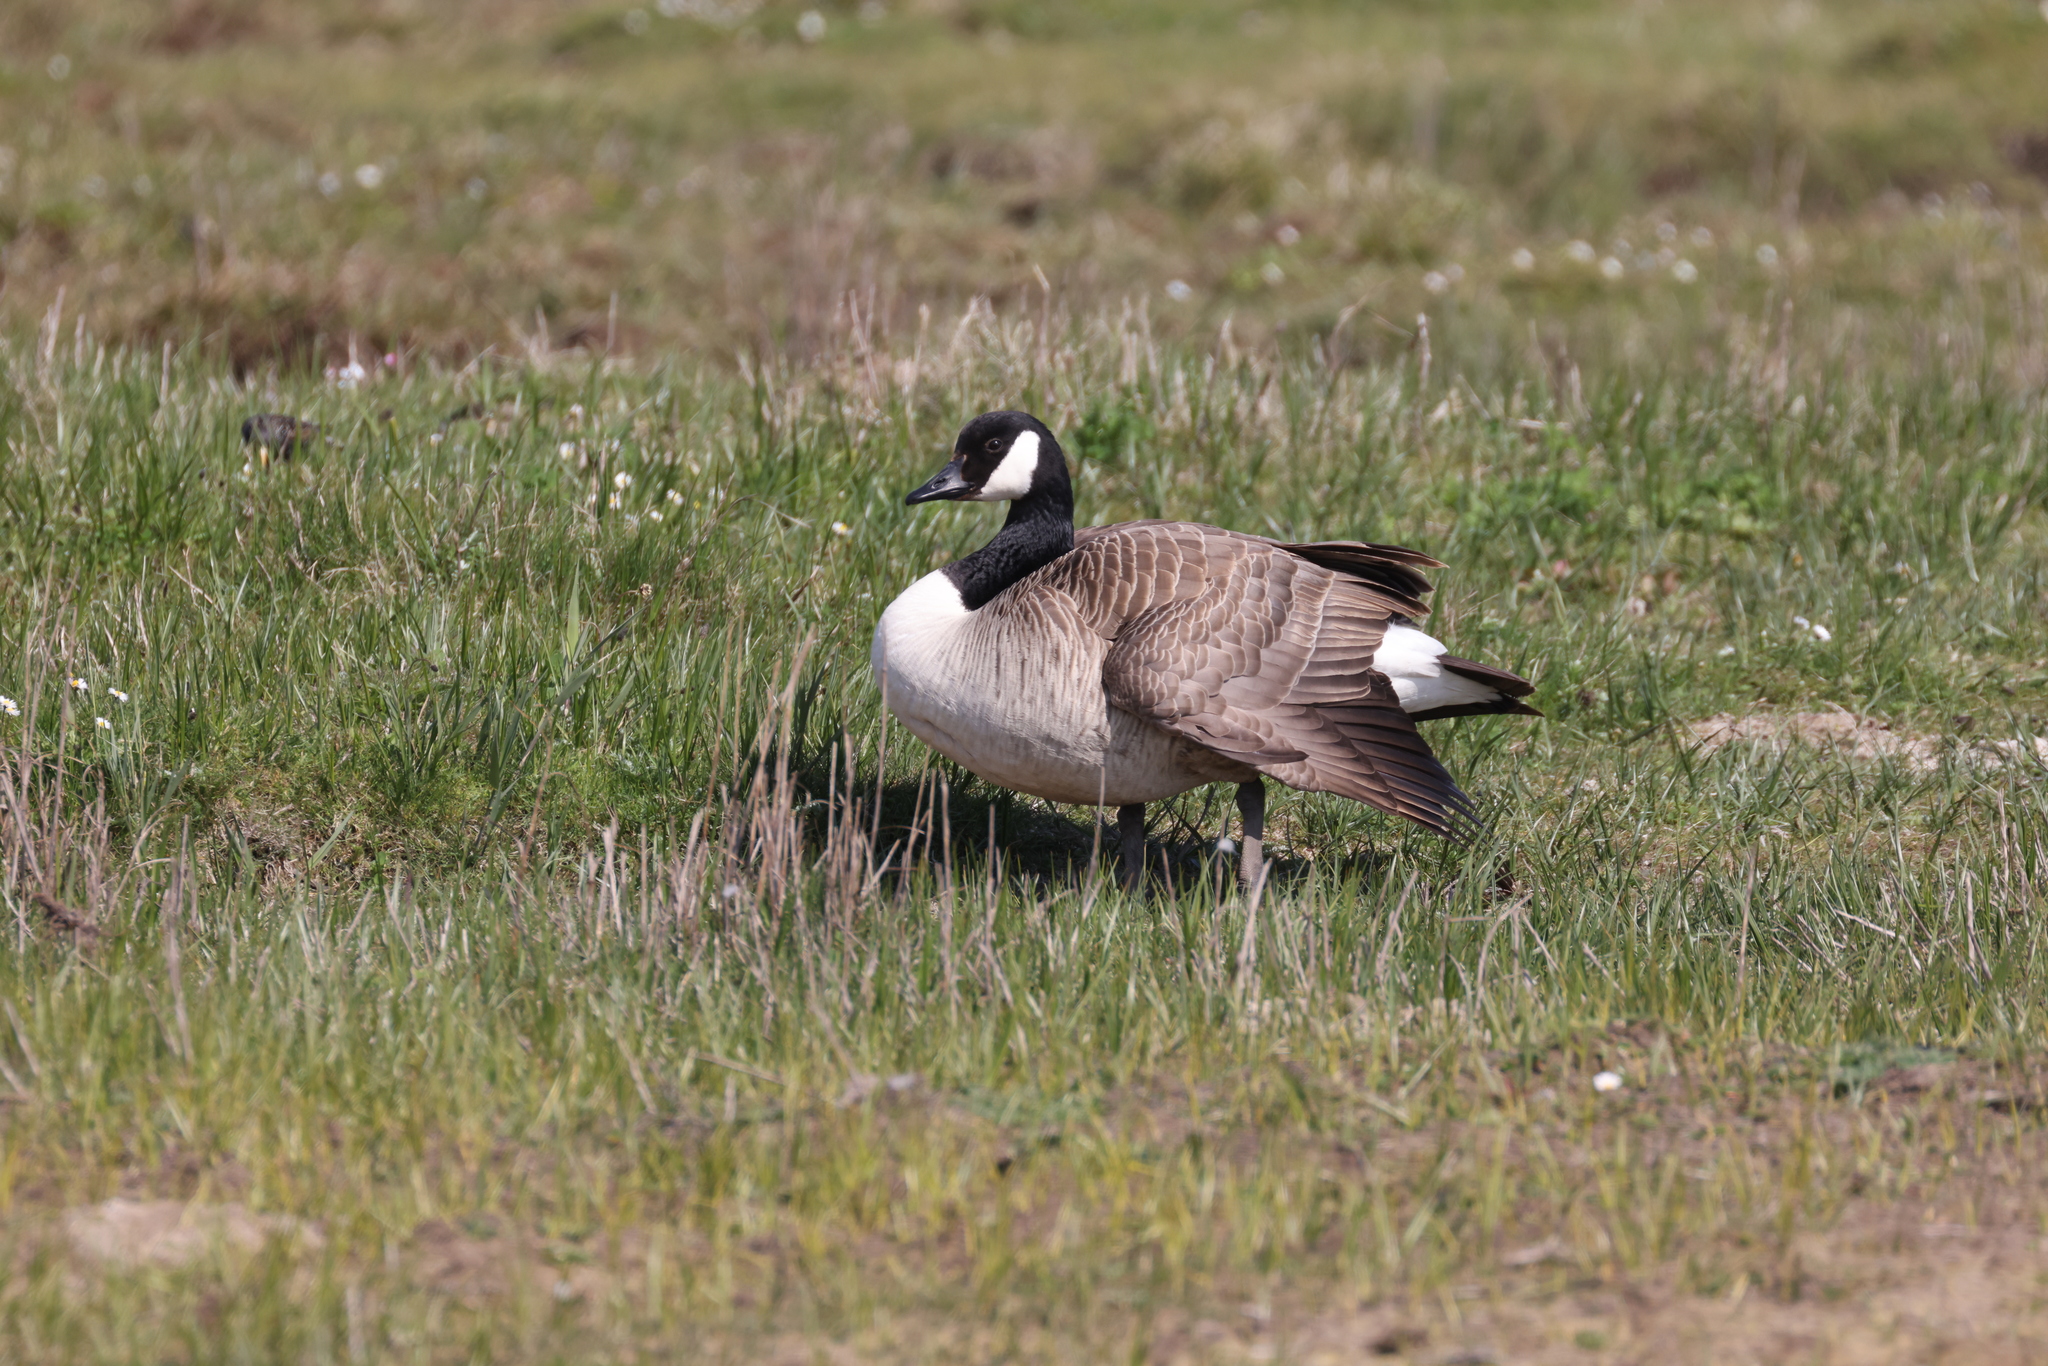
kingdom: Animalia
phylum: Chordata
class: Aves
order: Anseriformes
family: Anatidae
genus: Branta
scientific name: Branta canadensis
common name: Canada goose
